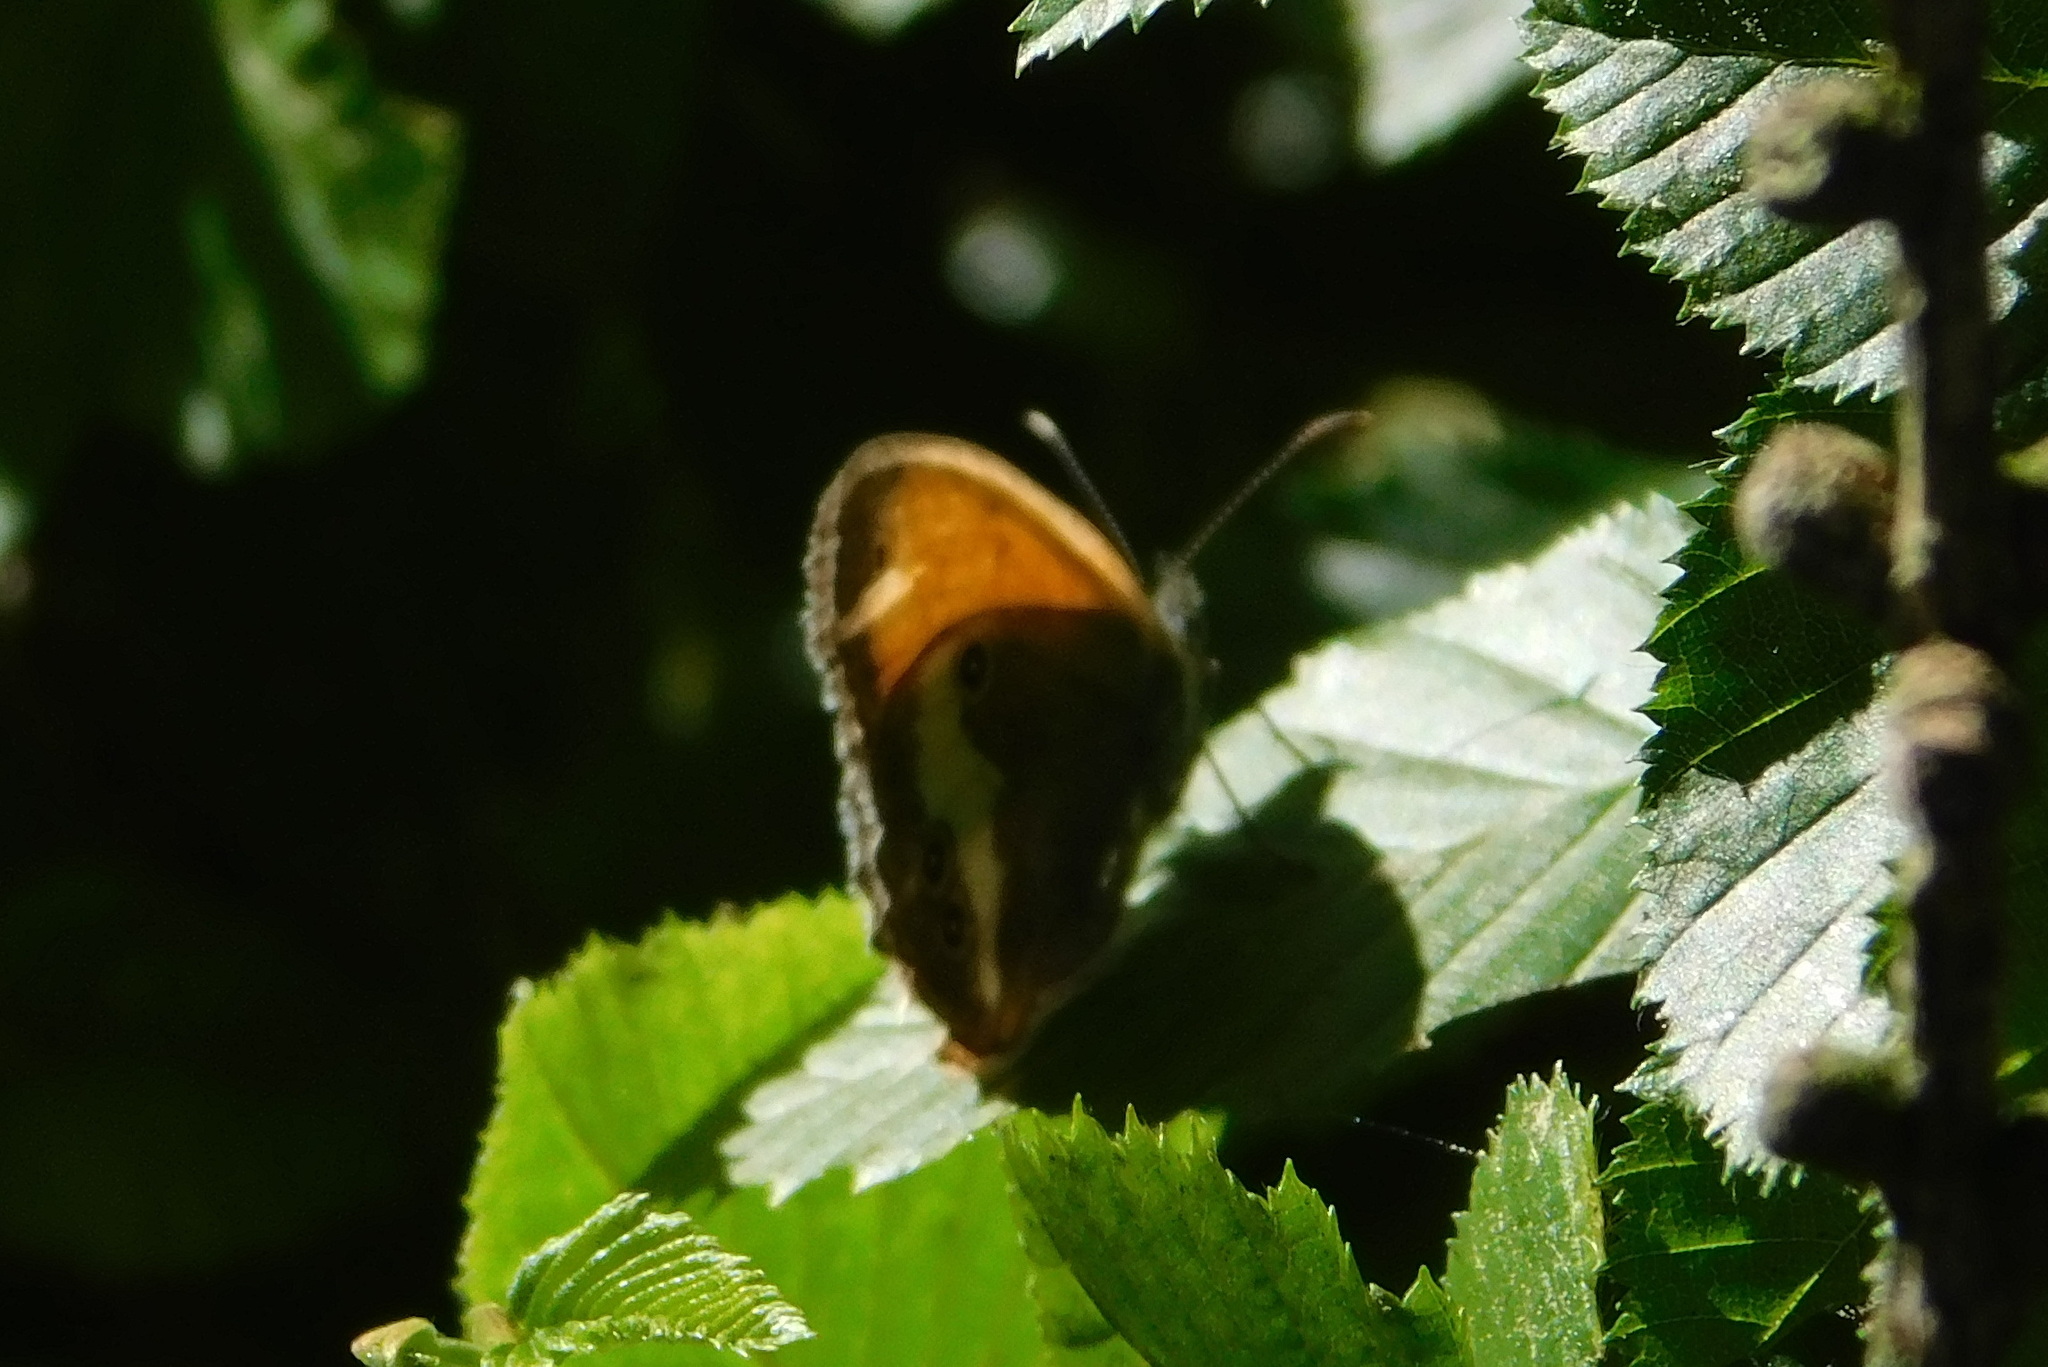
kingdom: Animalia
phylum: Arthropoda
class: Insecta
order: Lepidoptera
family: Nymphalidae
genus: Coenonympha
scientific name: Coenonympha arcania
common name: Pearly heath
